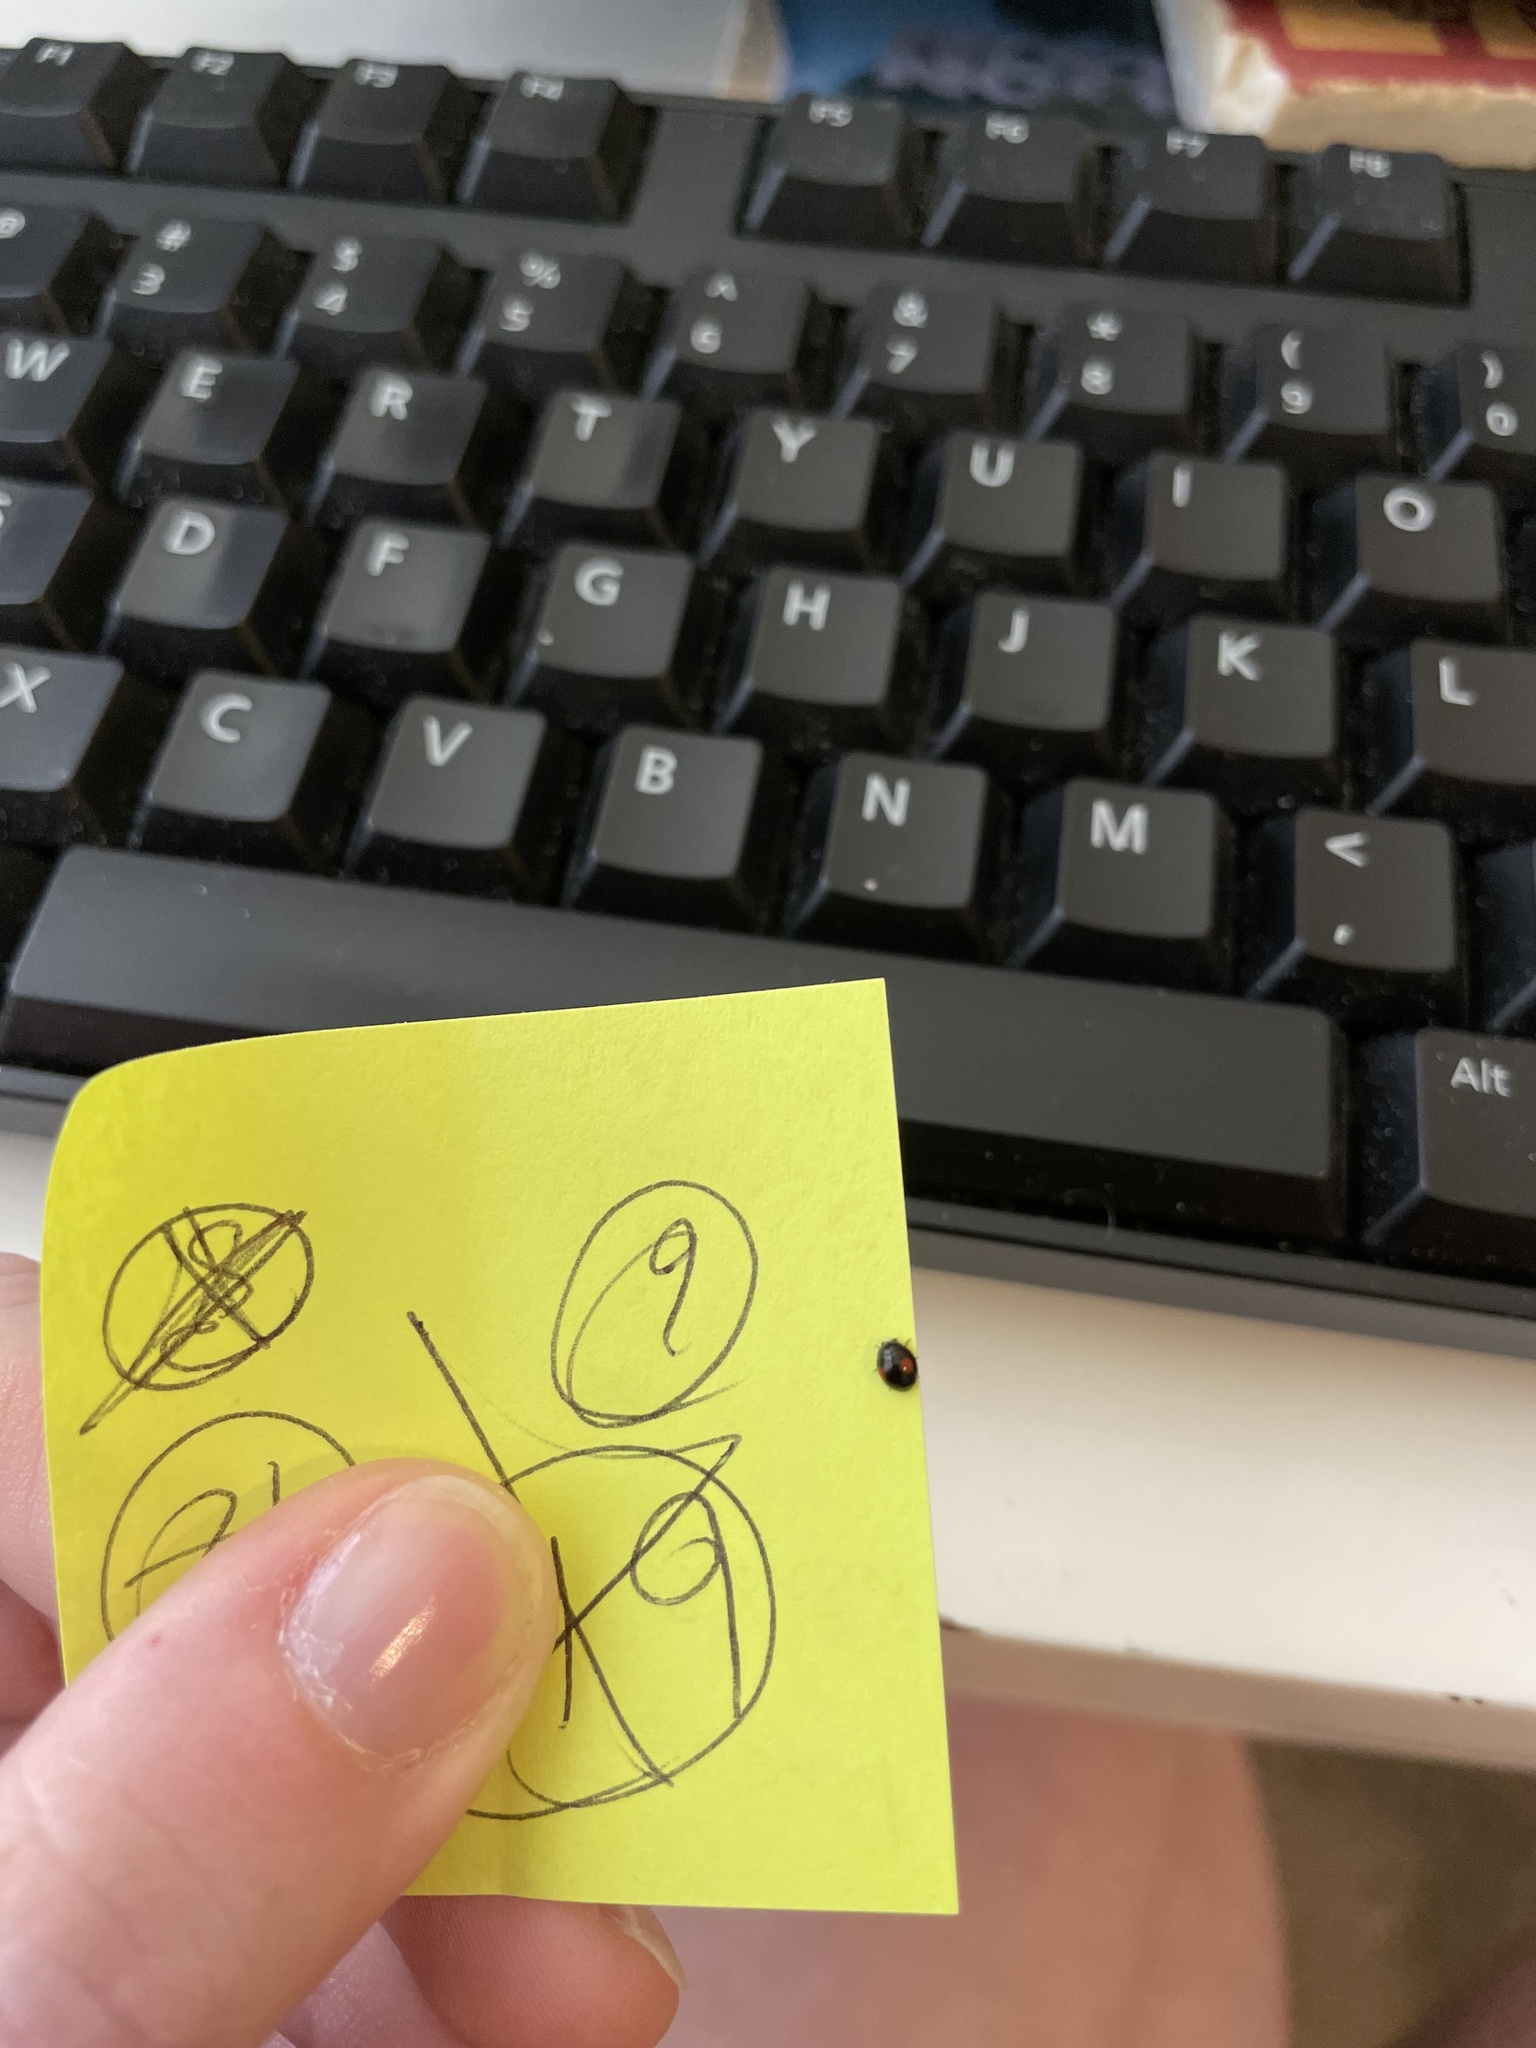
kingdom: Animalia
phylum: Arthropoda
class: Insecta
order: Coleoptera
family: Coccinellidae
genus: Chilocorus
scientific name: Chilocorus stigma
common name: Twicestabbed lady beetle
